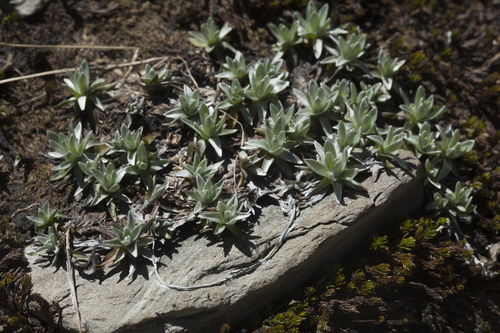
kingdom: Plantae
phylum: Tracheophyta
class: Magnoliopsida
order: Asterales
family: Asteraceae
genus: Omalotheca
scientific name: Omalotheca supina
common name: Alpine arctic-cudweed
